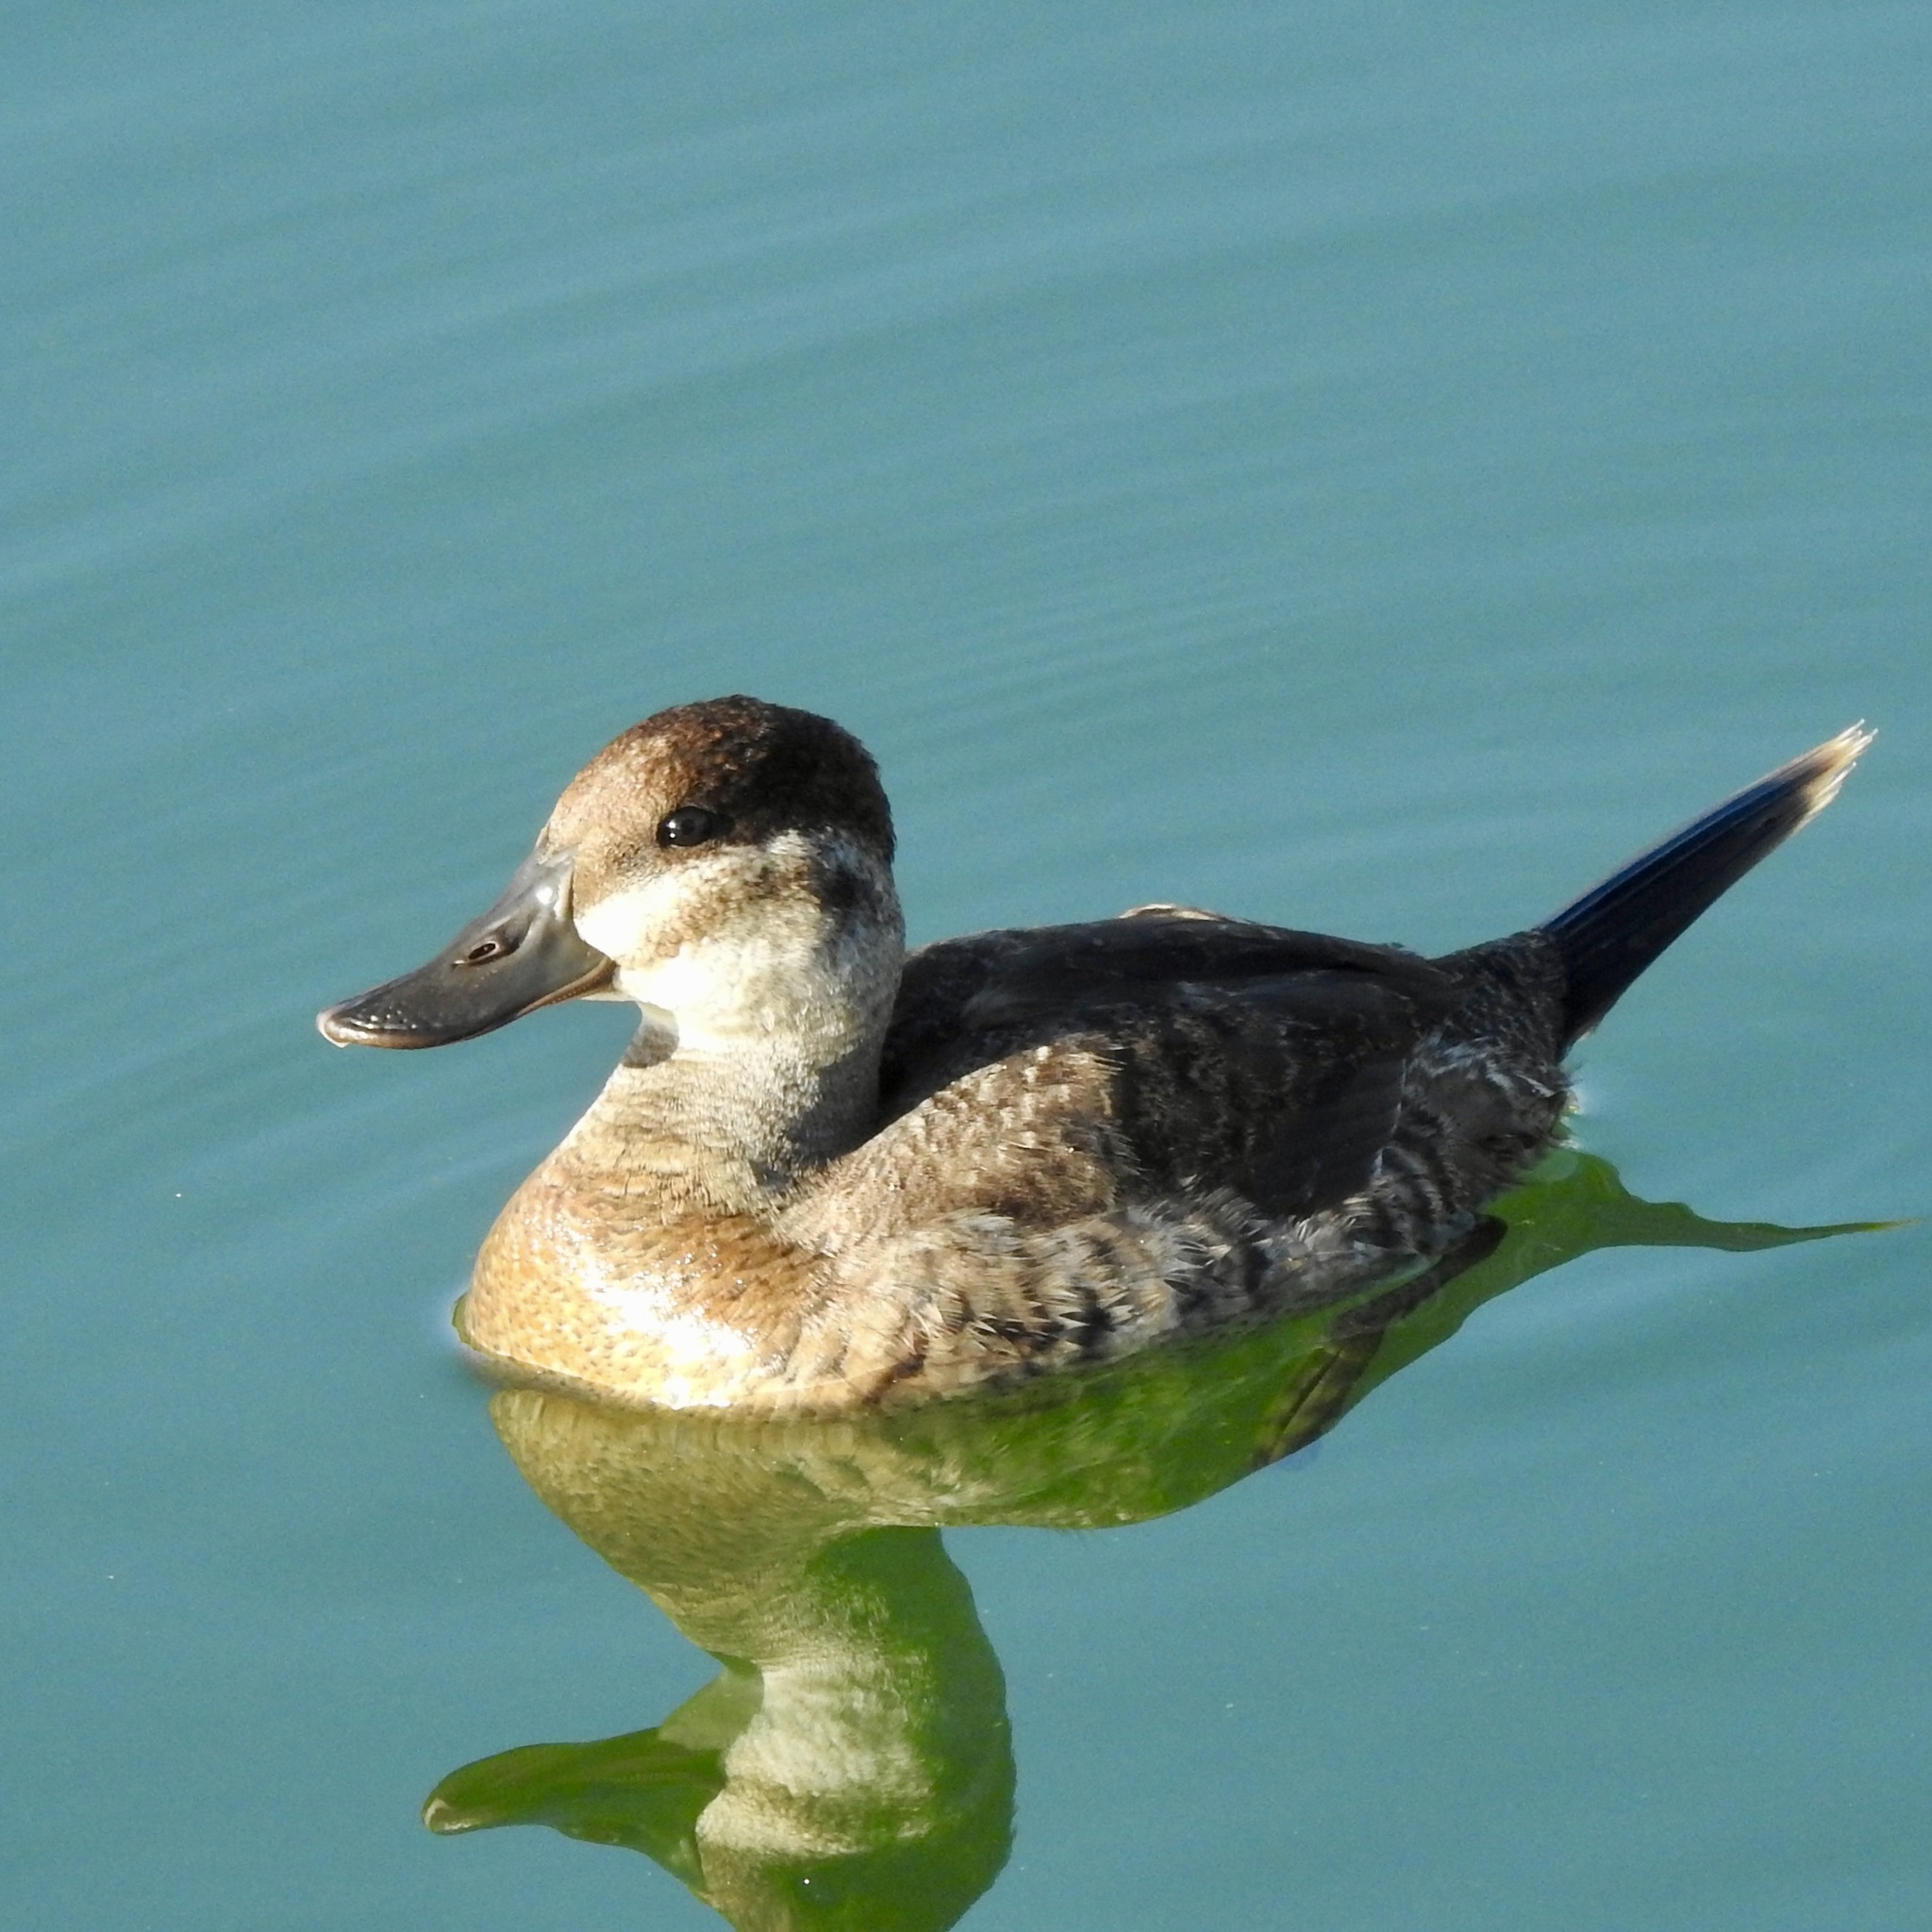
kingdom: Animalia
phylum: Chordata
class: Aves
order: Anseriformes
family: Anatidae
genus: Oxyura
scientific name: Oxyura jamaicensis
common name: Ruddy duck
